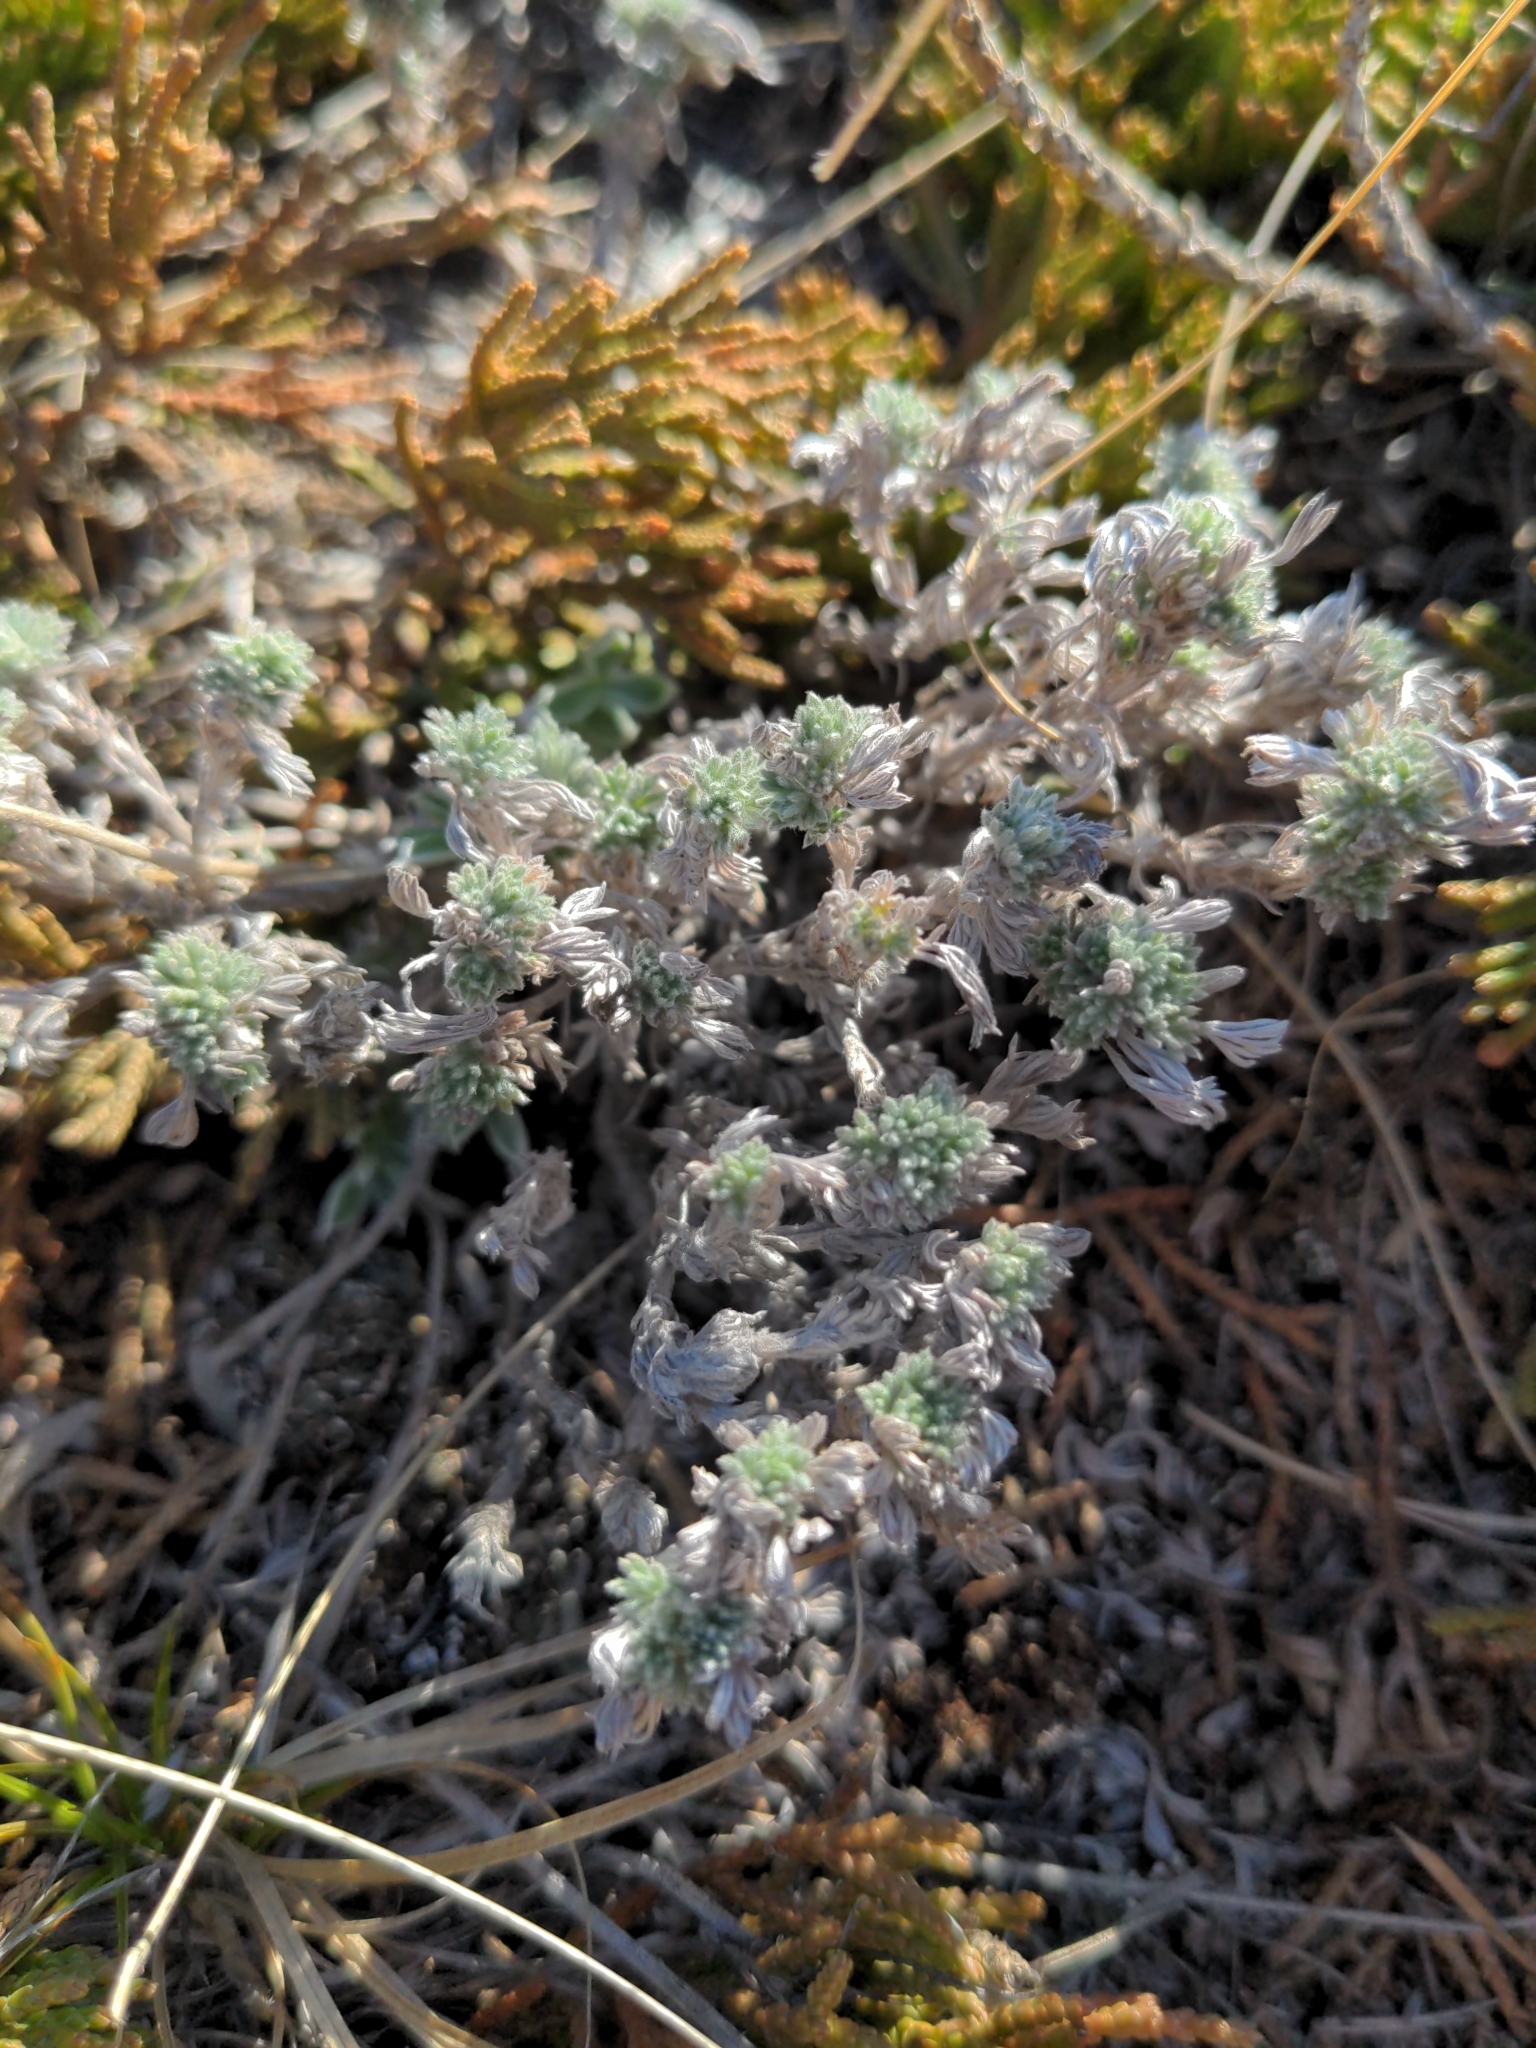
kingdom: Plantae
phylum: Tracheophyta
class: Magnoliopsida
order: Asterales
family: Asteraceae
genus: Artemisia
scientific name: Artemisia frigida
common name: Prairie sagewort
